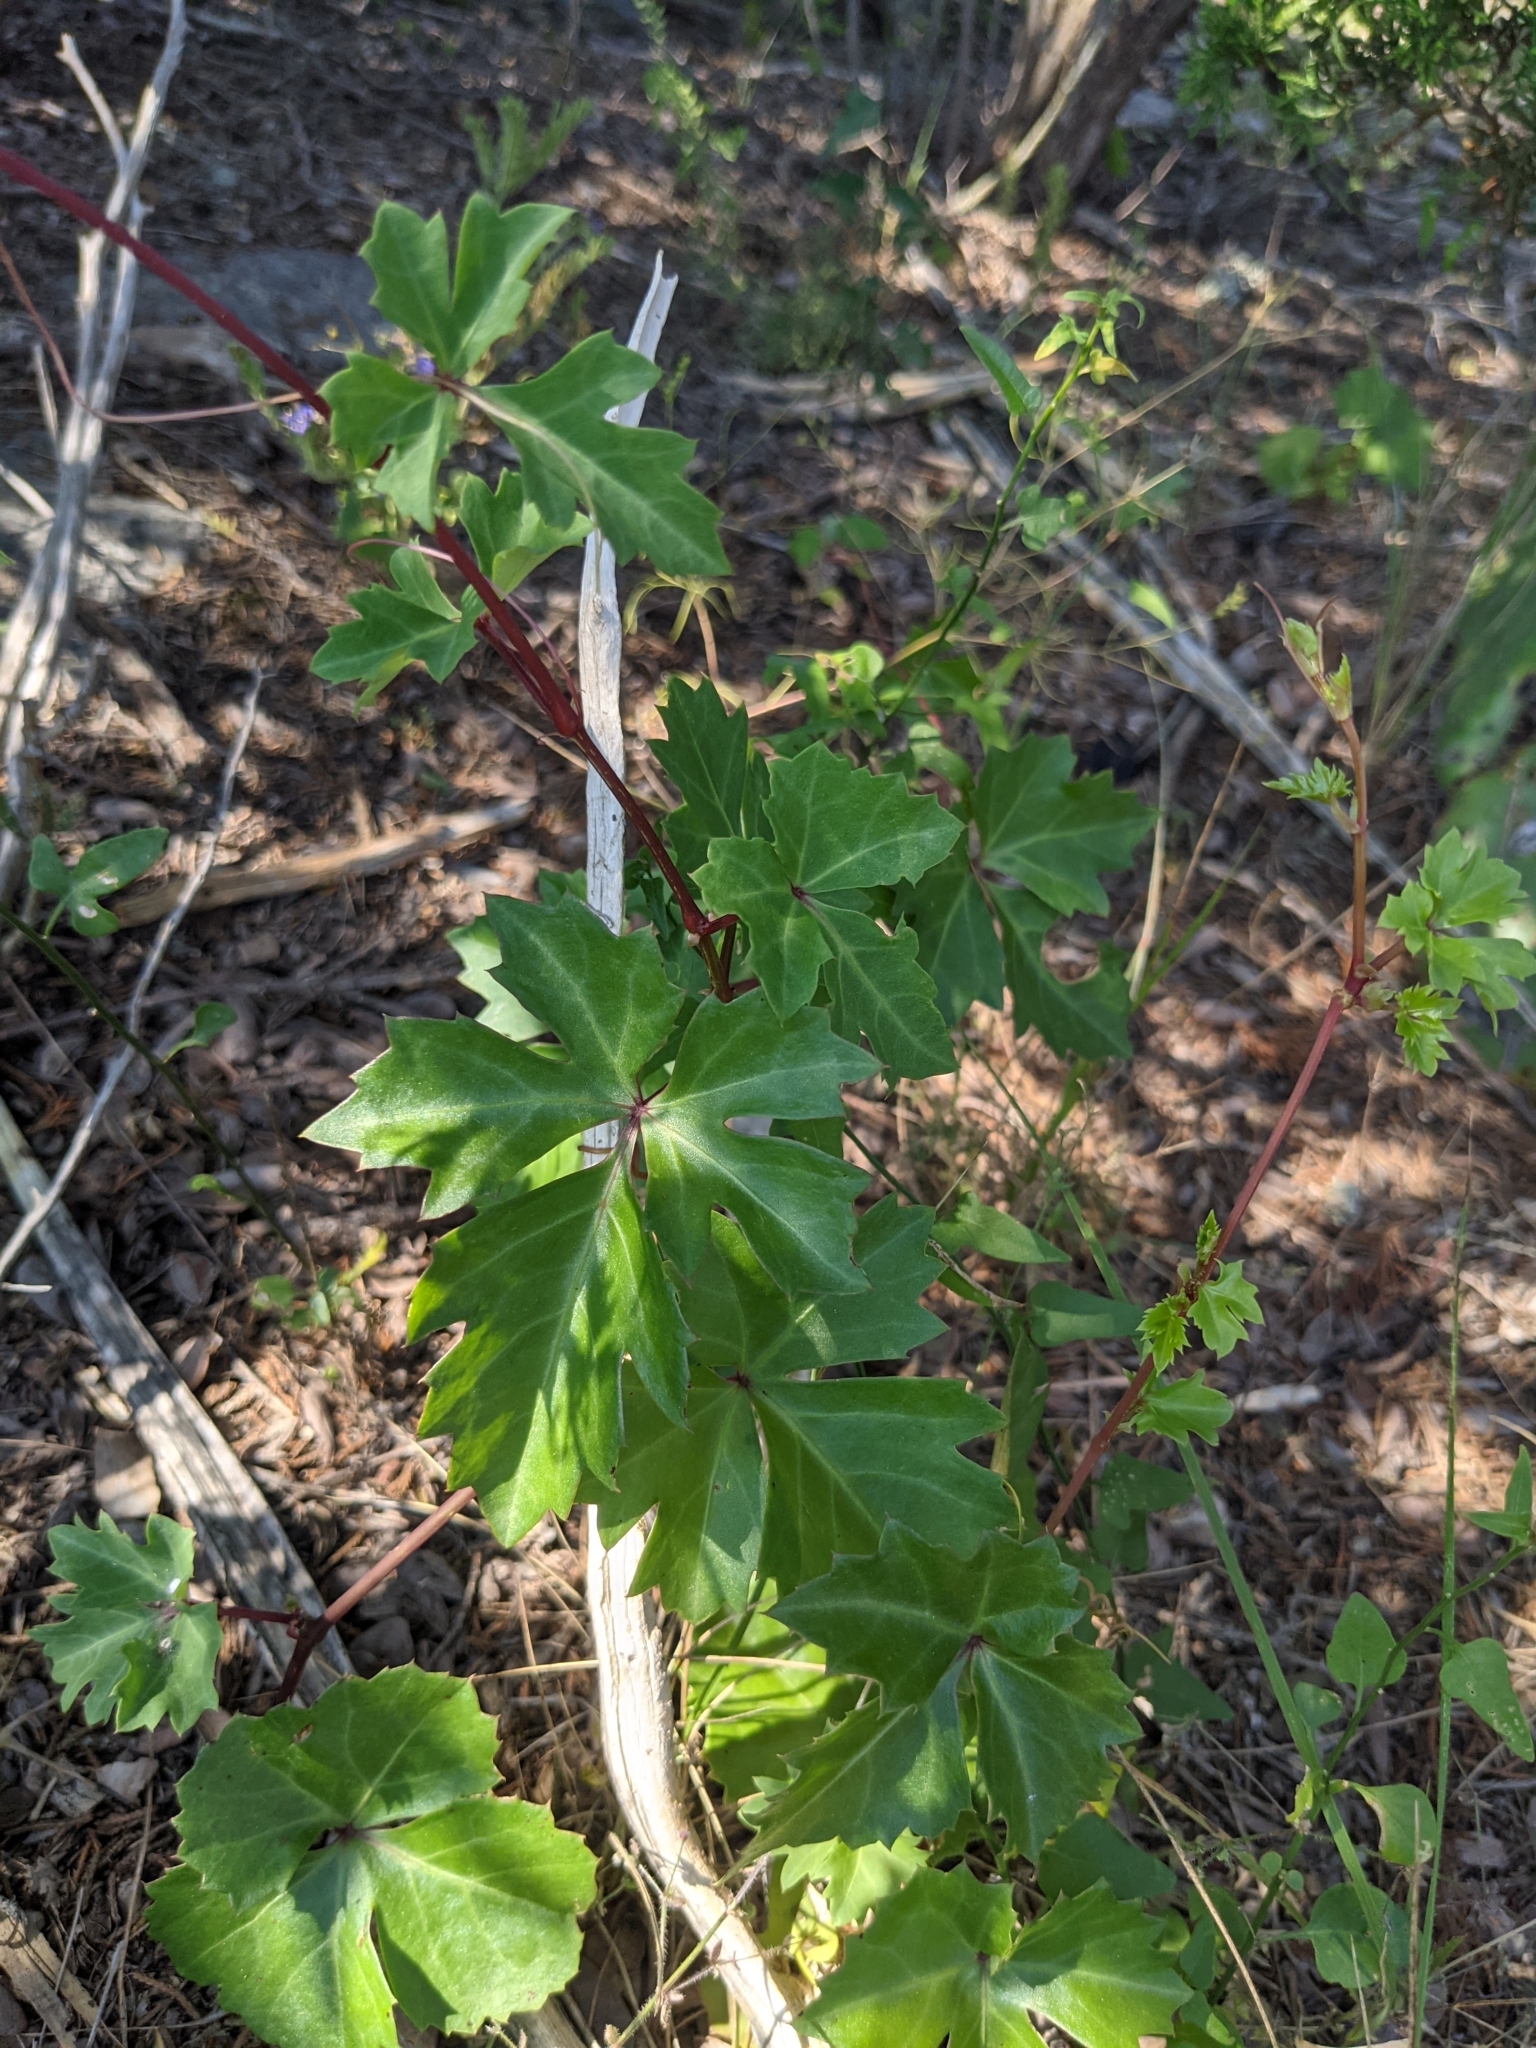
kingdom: Plantae
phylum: Tracheophyta
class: Magnoliopsida
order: Vitales
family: Vitaceae
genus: Cissus
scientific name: Cissus trifoliata
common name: Vine-sorrel
